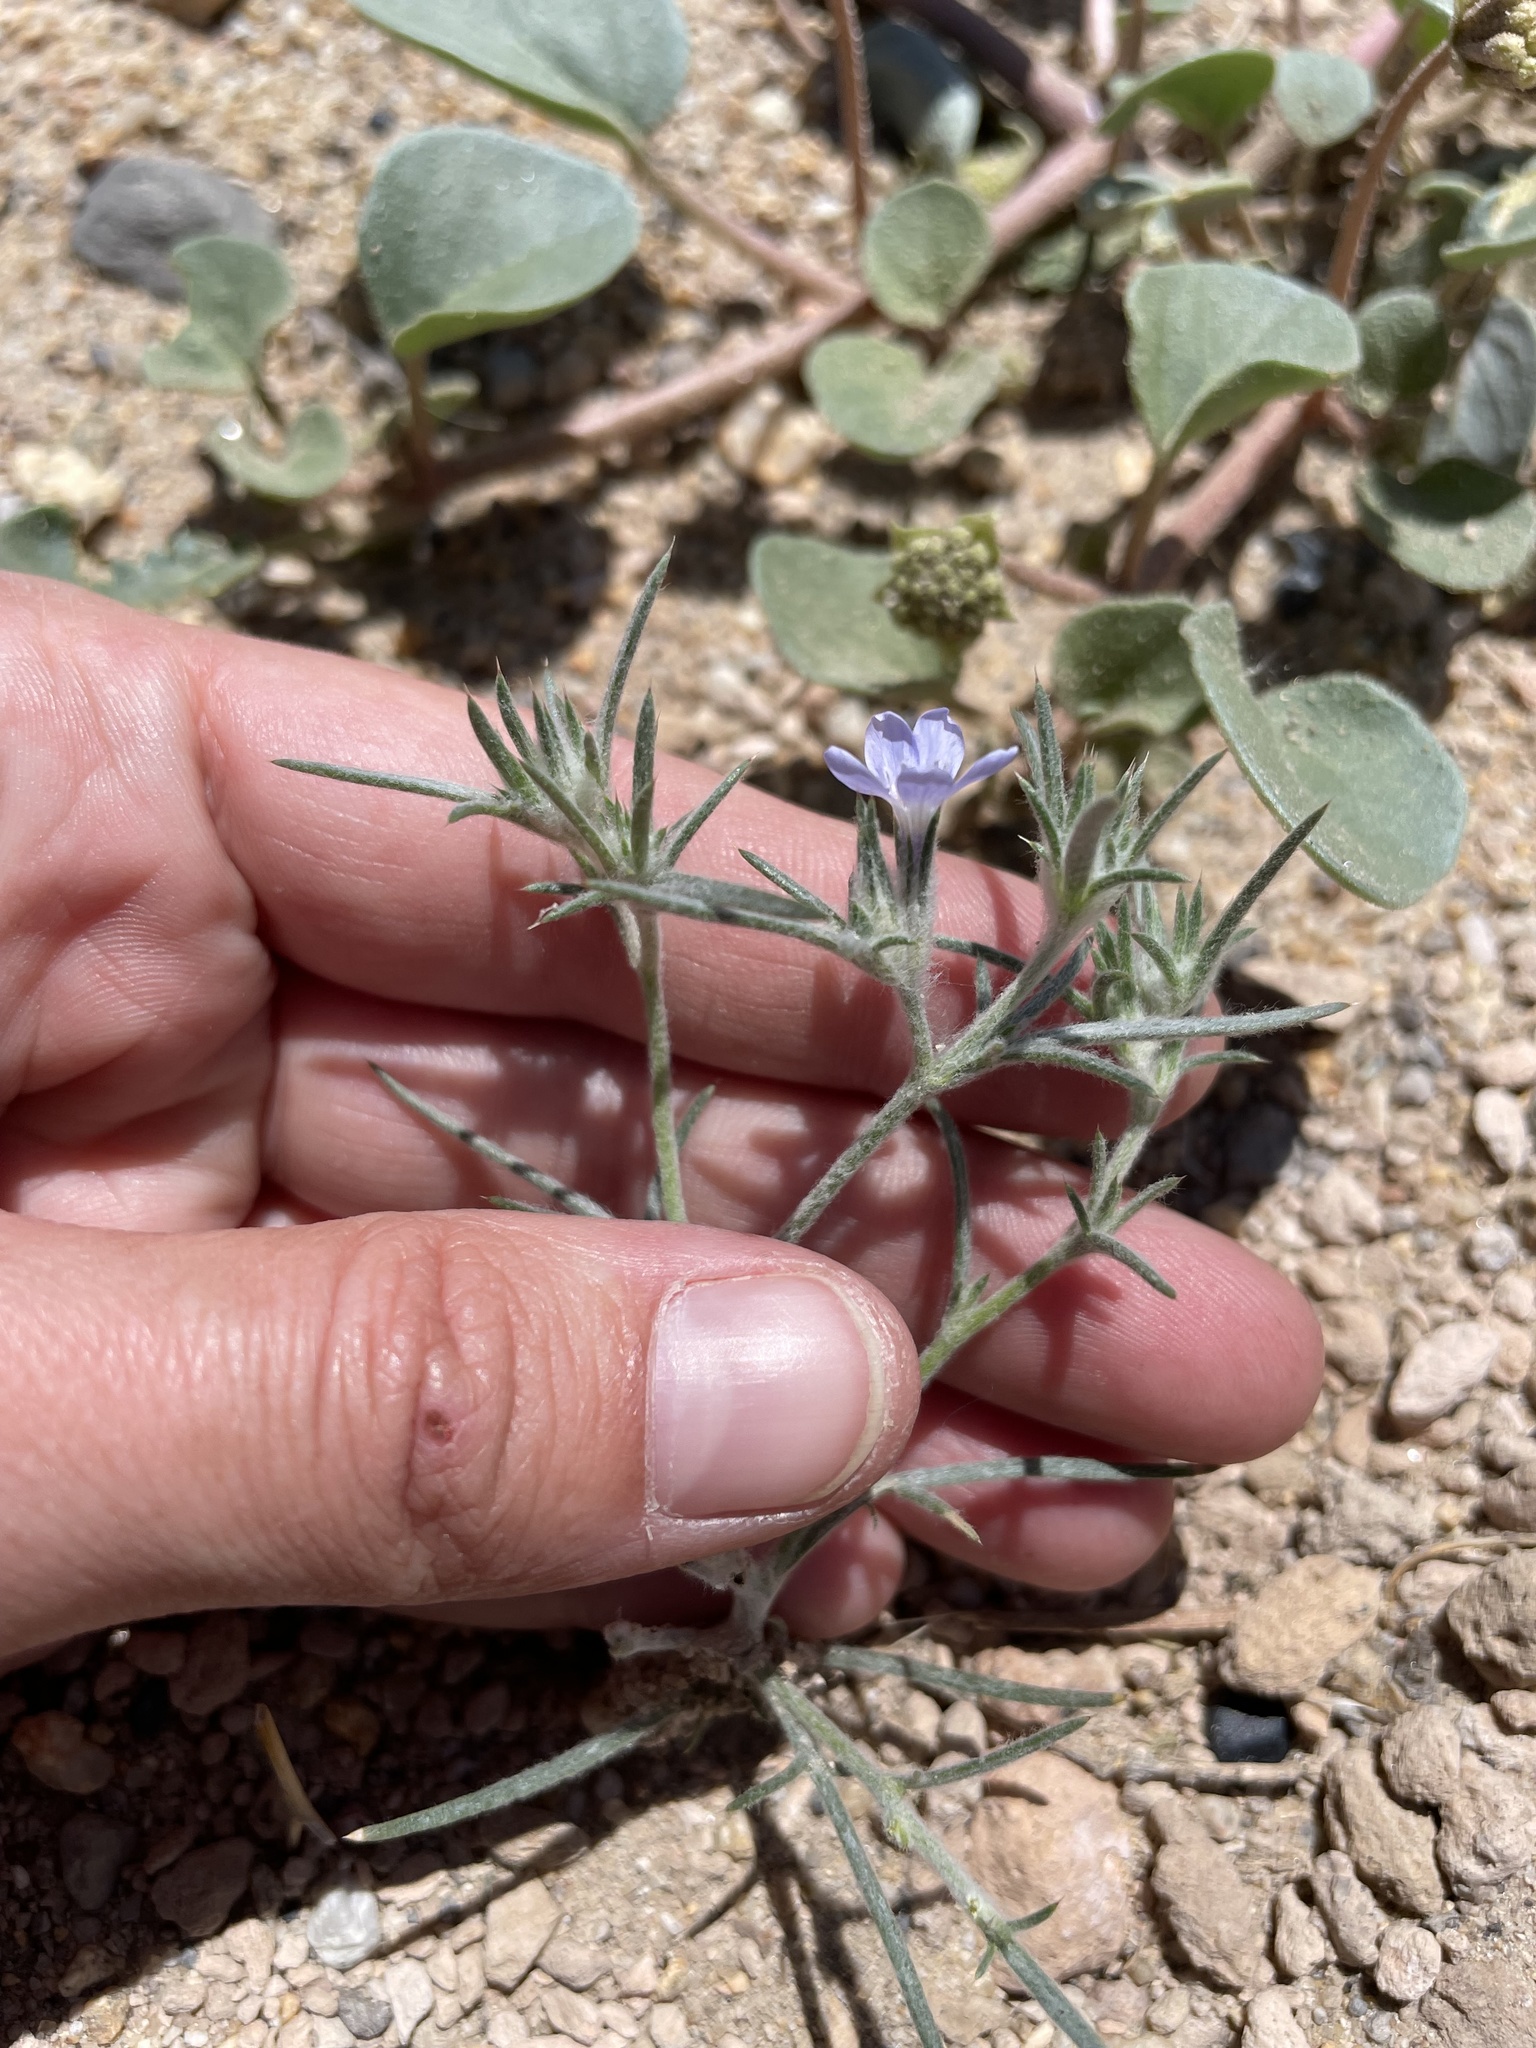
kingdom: Plantae
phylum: Tracheophyta
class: Magnoliopsida
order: Ericales
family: Polemoniaceae
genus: Eriastrum
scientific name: Eriastrum wilcoxii
